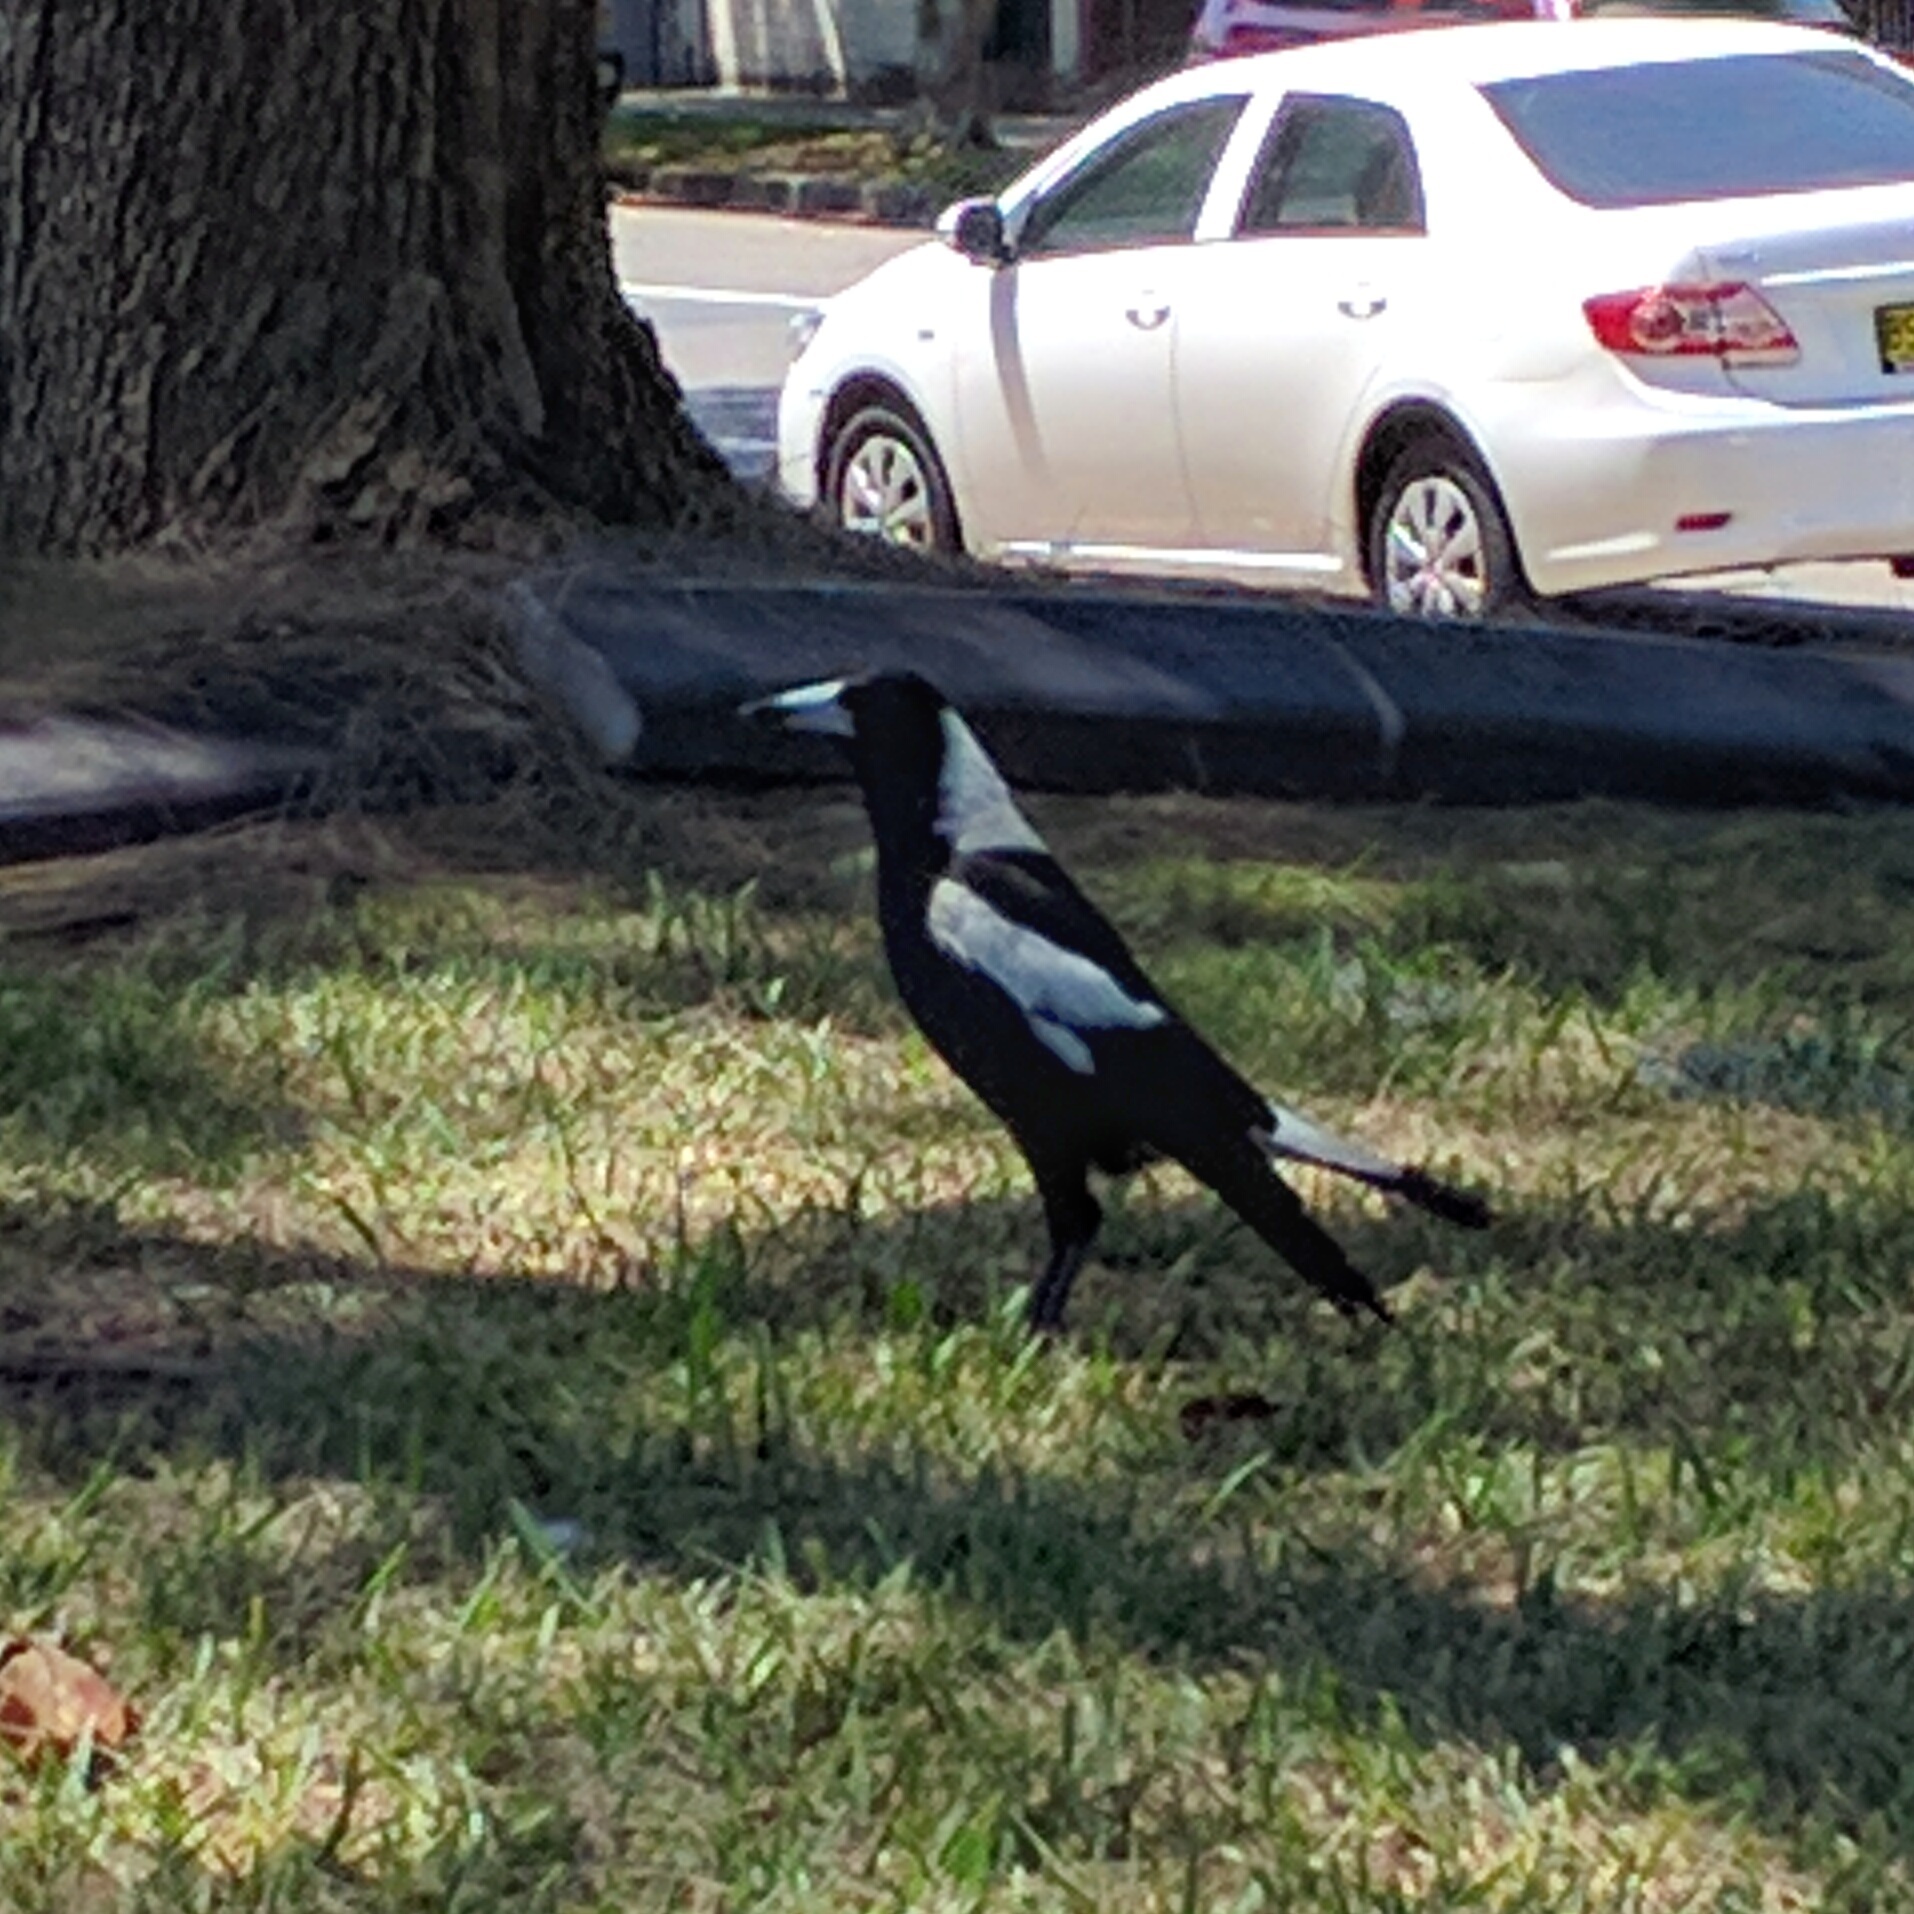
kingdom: Animalia
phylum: Chordata
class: Aves
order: Passeriformes
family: Cracticidae
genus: Gymnorhina
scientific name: Gymnorhina tibicen
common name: Australian magpie
